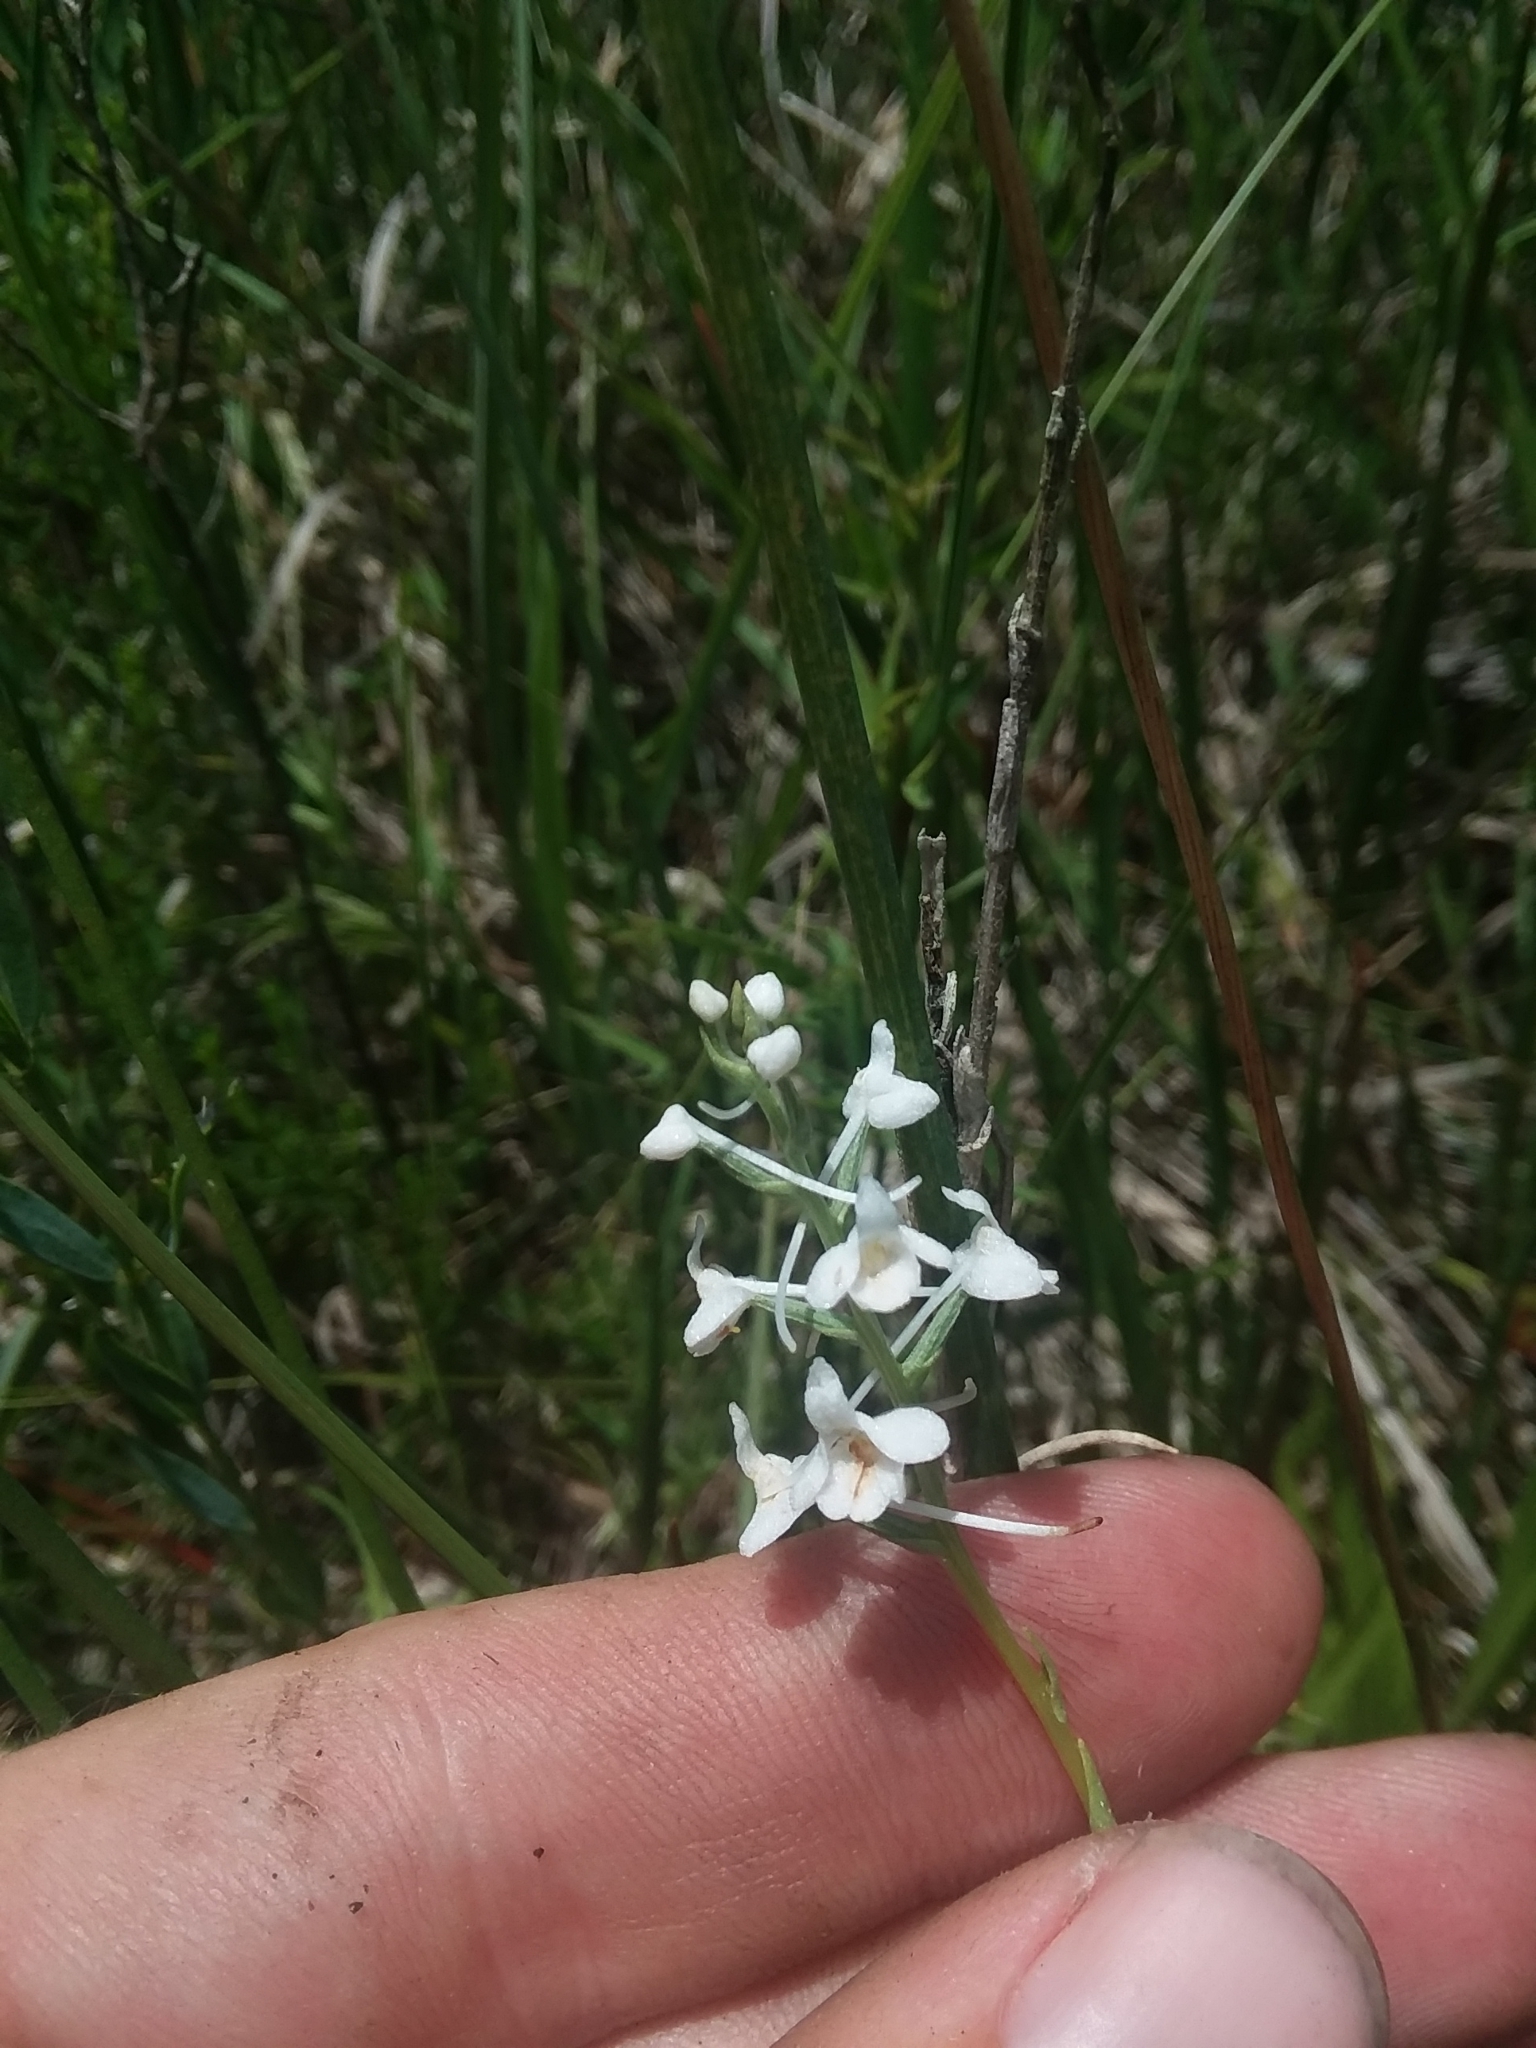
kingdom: Plantae
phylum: Tracheophyta
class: Liliopsida
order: Asparagales
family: Orchidaceae
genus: Platanthera
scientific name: Platanthera nivea
